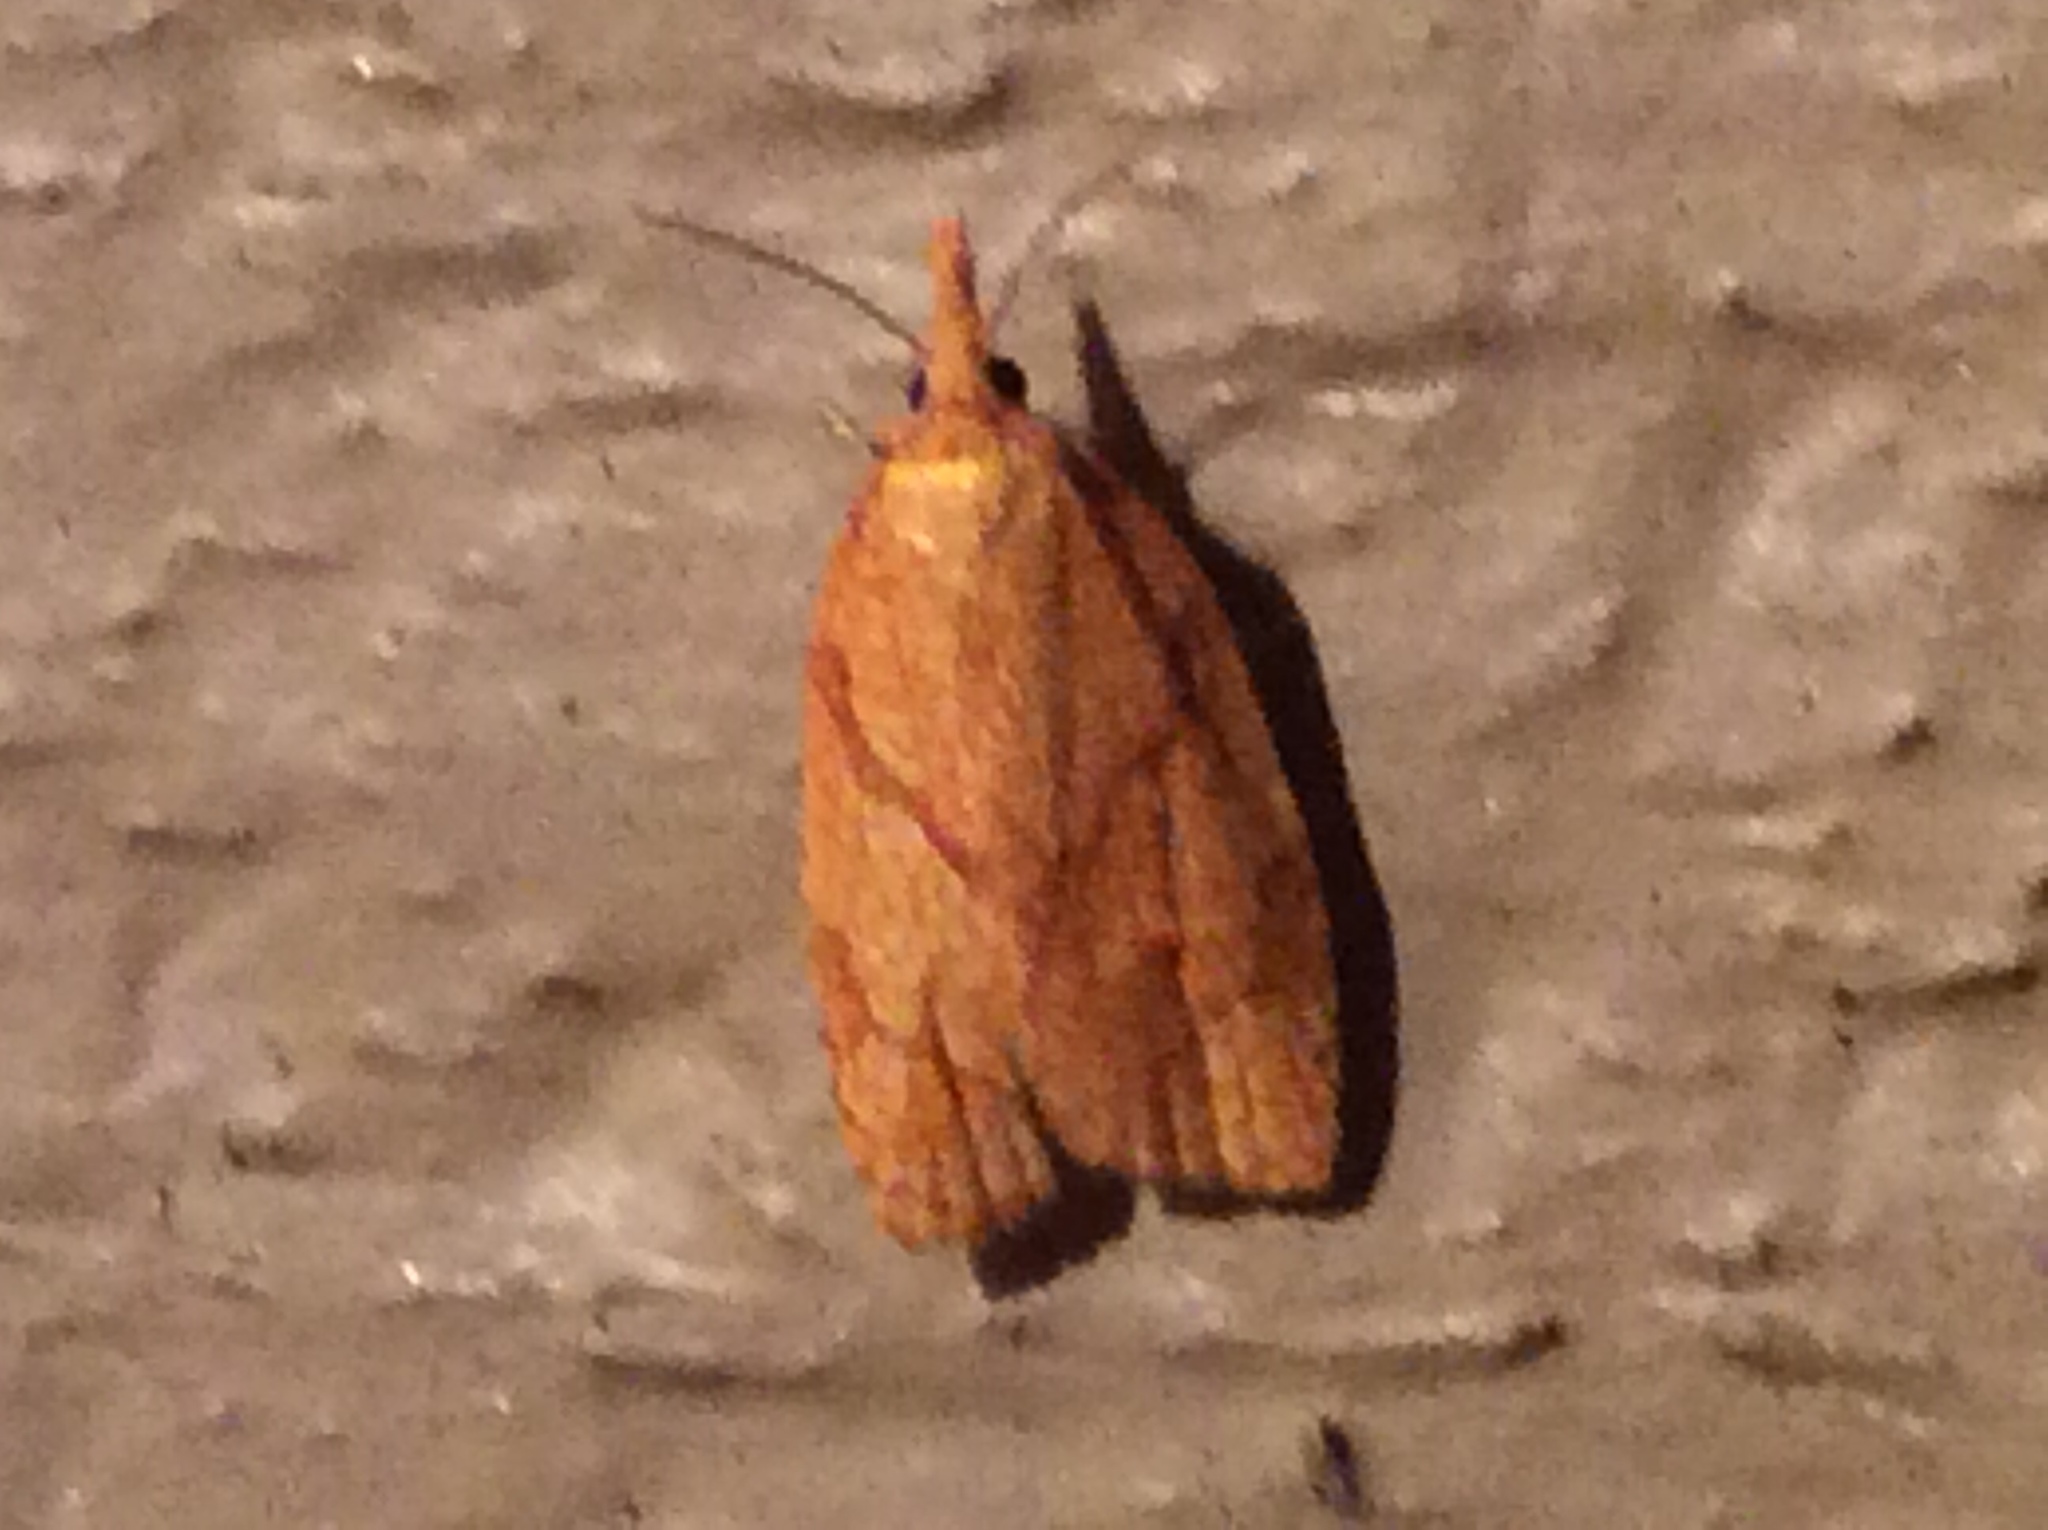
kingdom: Animalia
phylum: Arthropoda
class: Insecta
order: Lepidoptera
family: Tortricidae
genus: Cenopis
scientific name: Cenopis reticulatana
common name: Reticulated fruitworm moth
